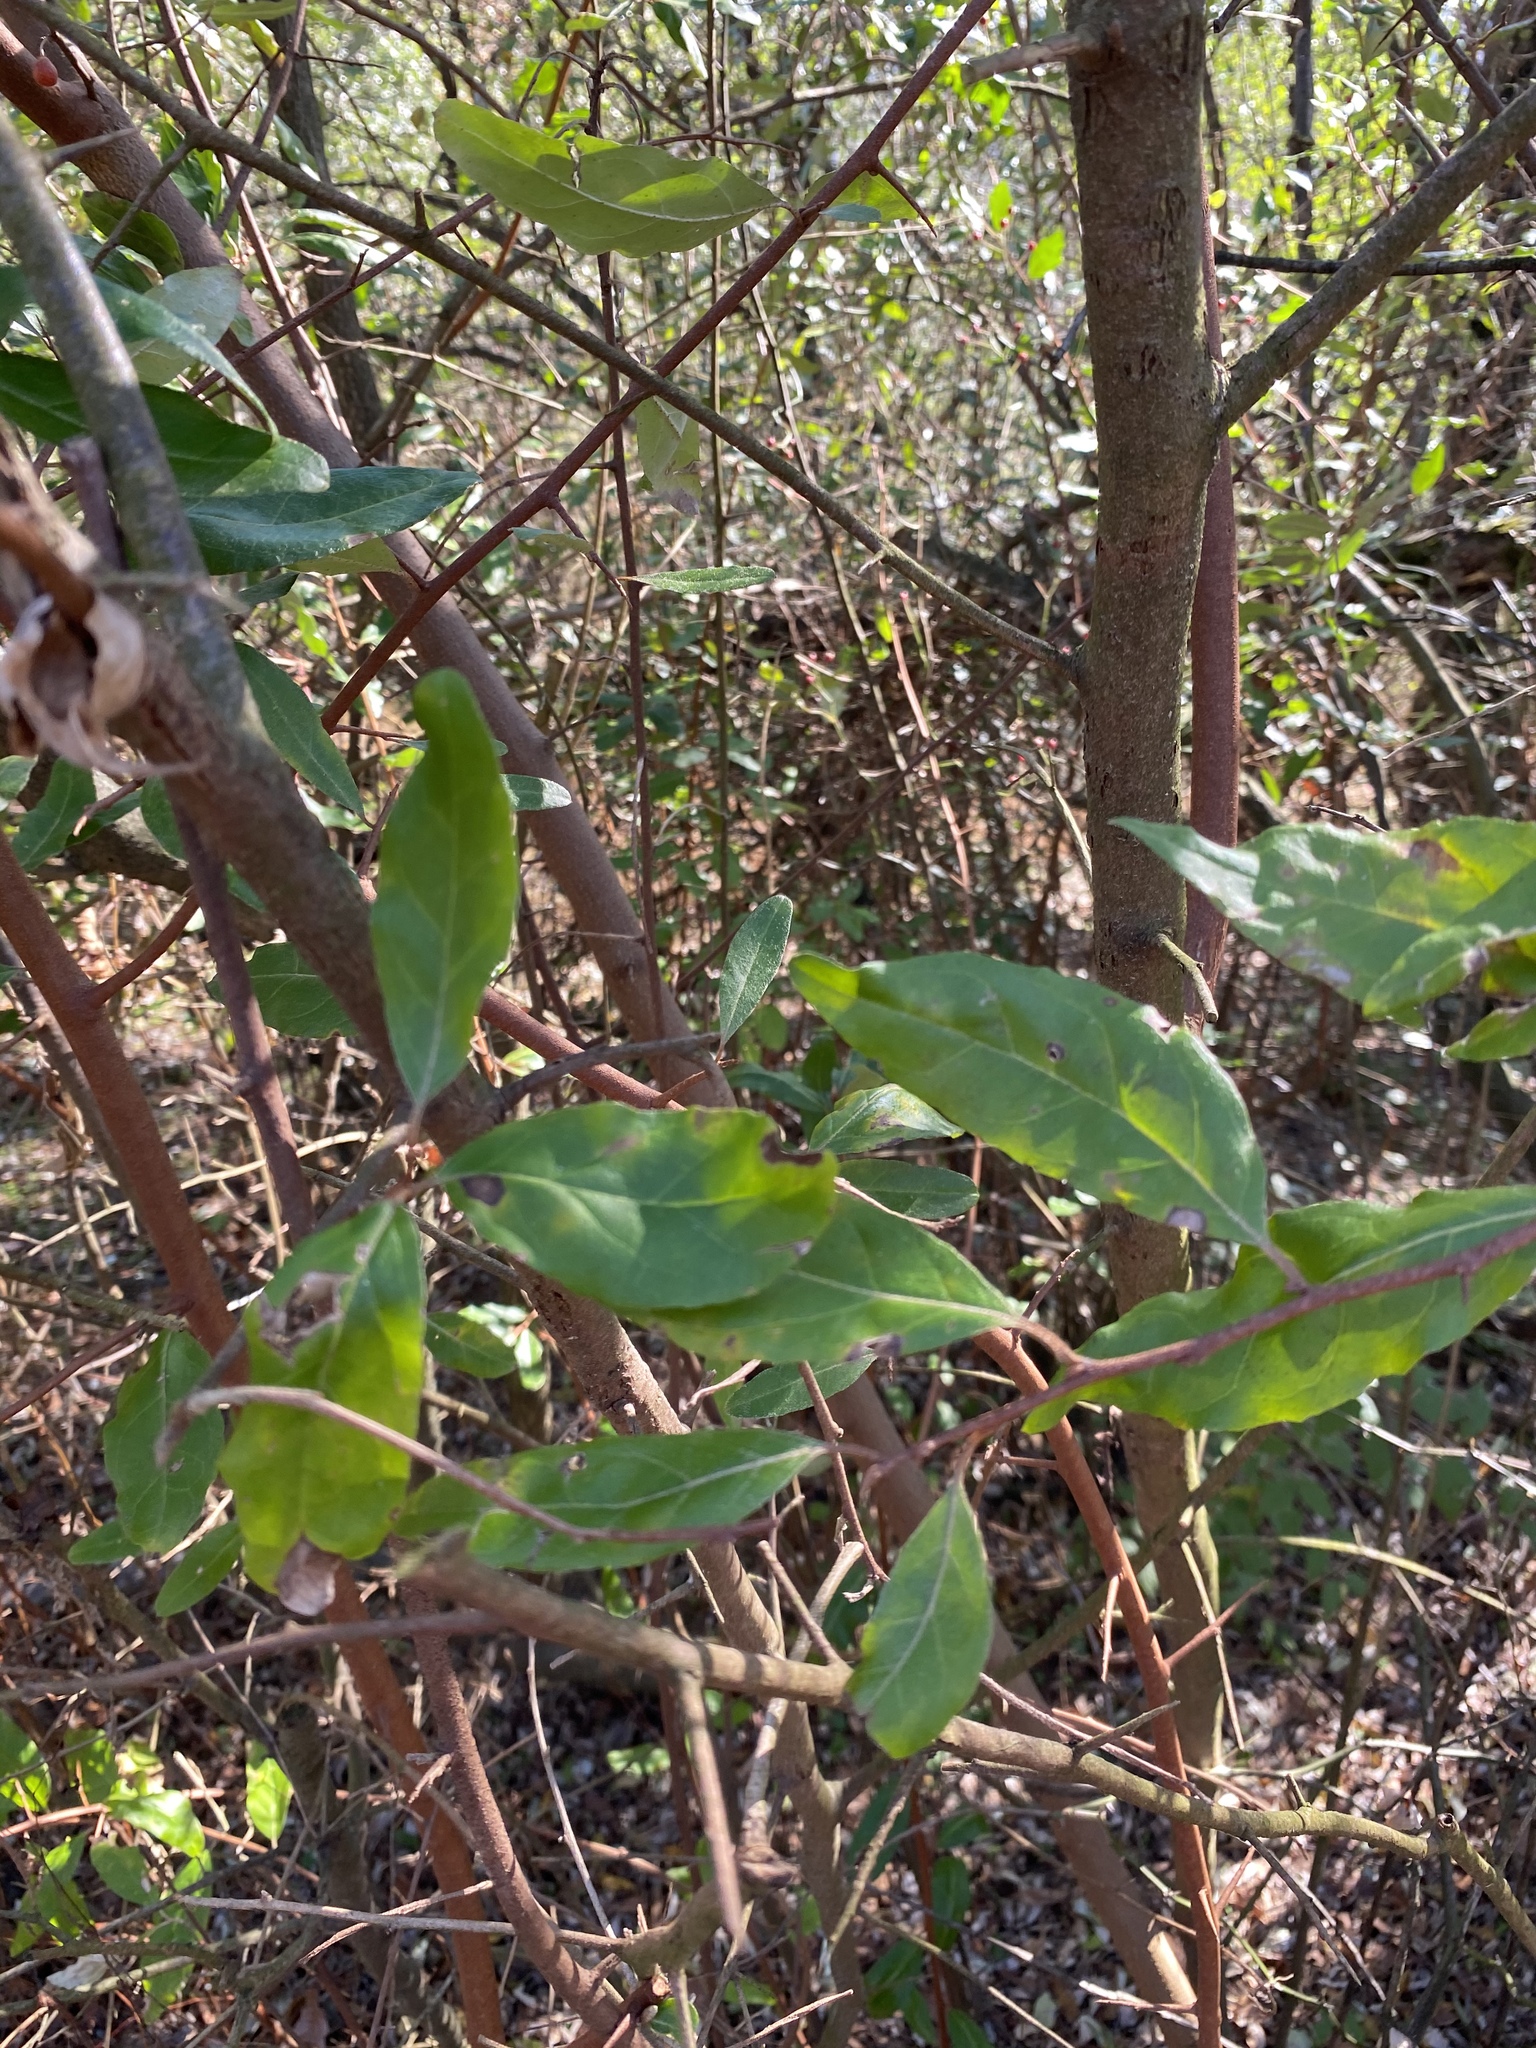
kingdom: Plantae
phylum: Tracheophyta
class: Magnoliopsida
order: Rosales
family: Elaeagnaceae
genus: Elaeagnus
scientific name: Elaeagnus umbellata
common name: Autumn olive
